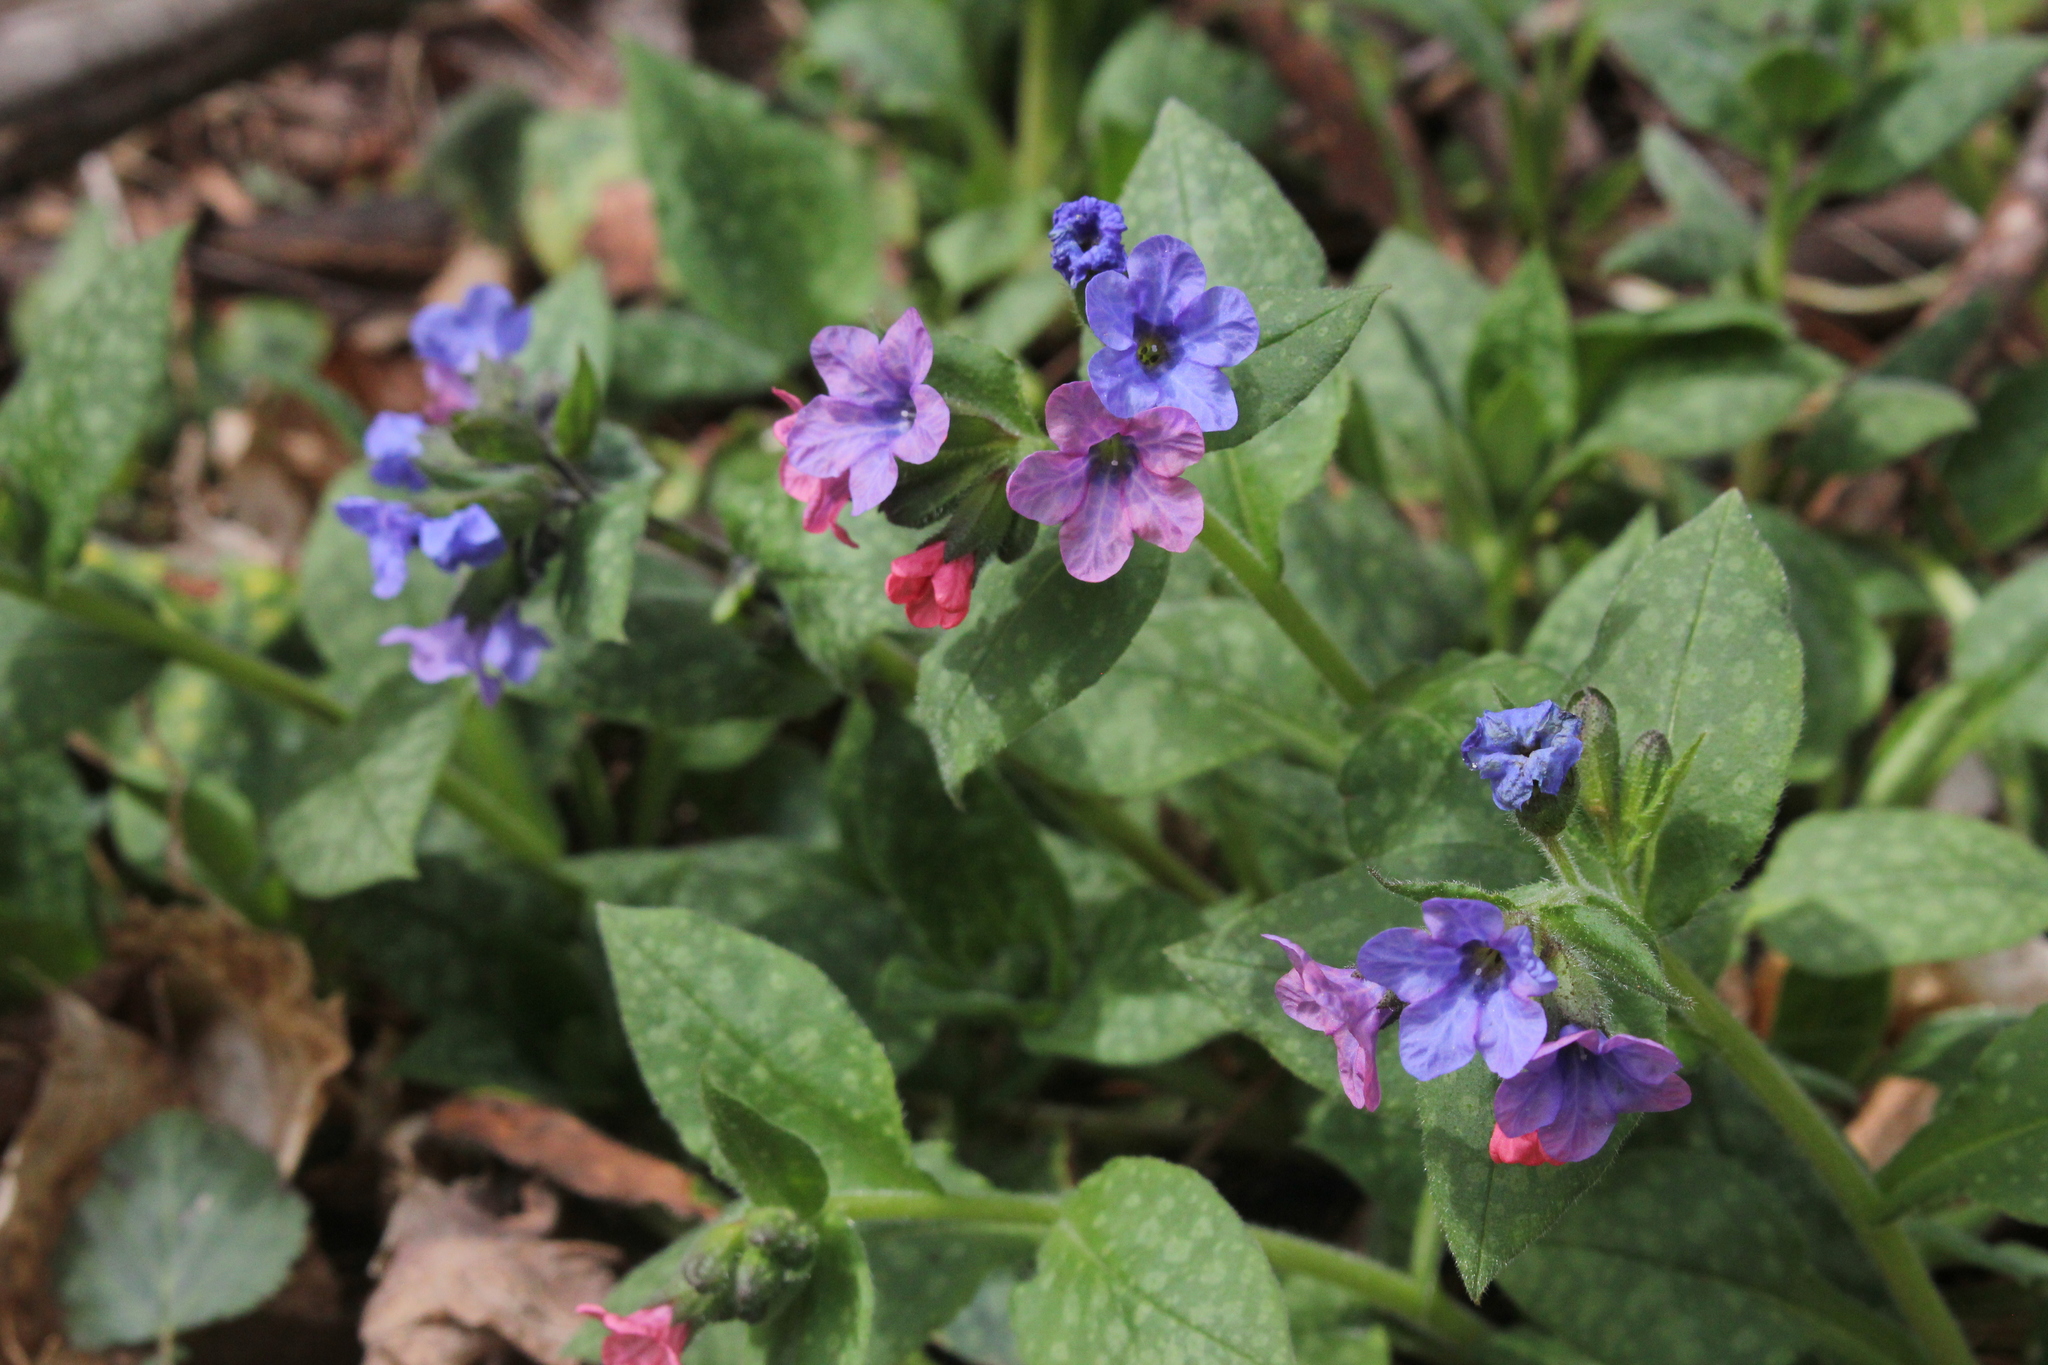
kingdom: Plantae
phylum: Tracheophyta
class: Magnoliopsida
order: Boraginales
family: Boraginaceae
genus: Pulmonaria
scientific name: Pulmonaria officinalis
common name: Lungwort
